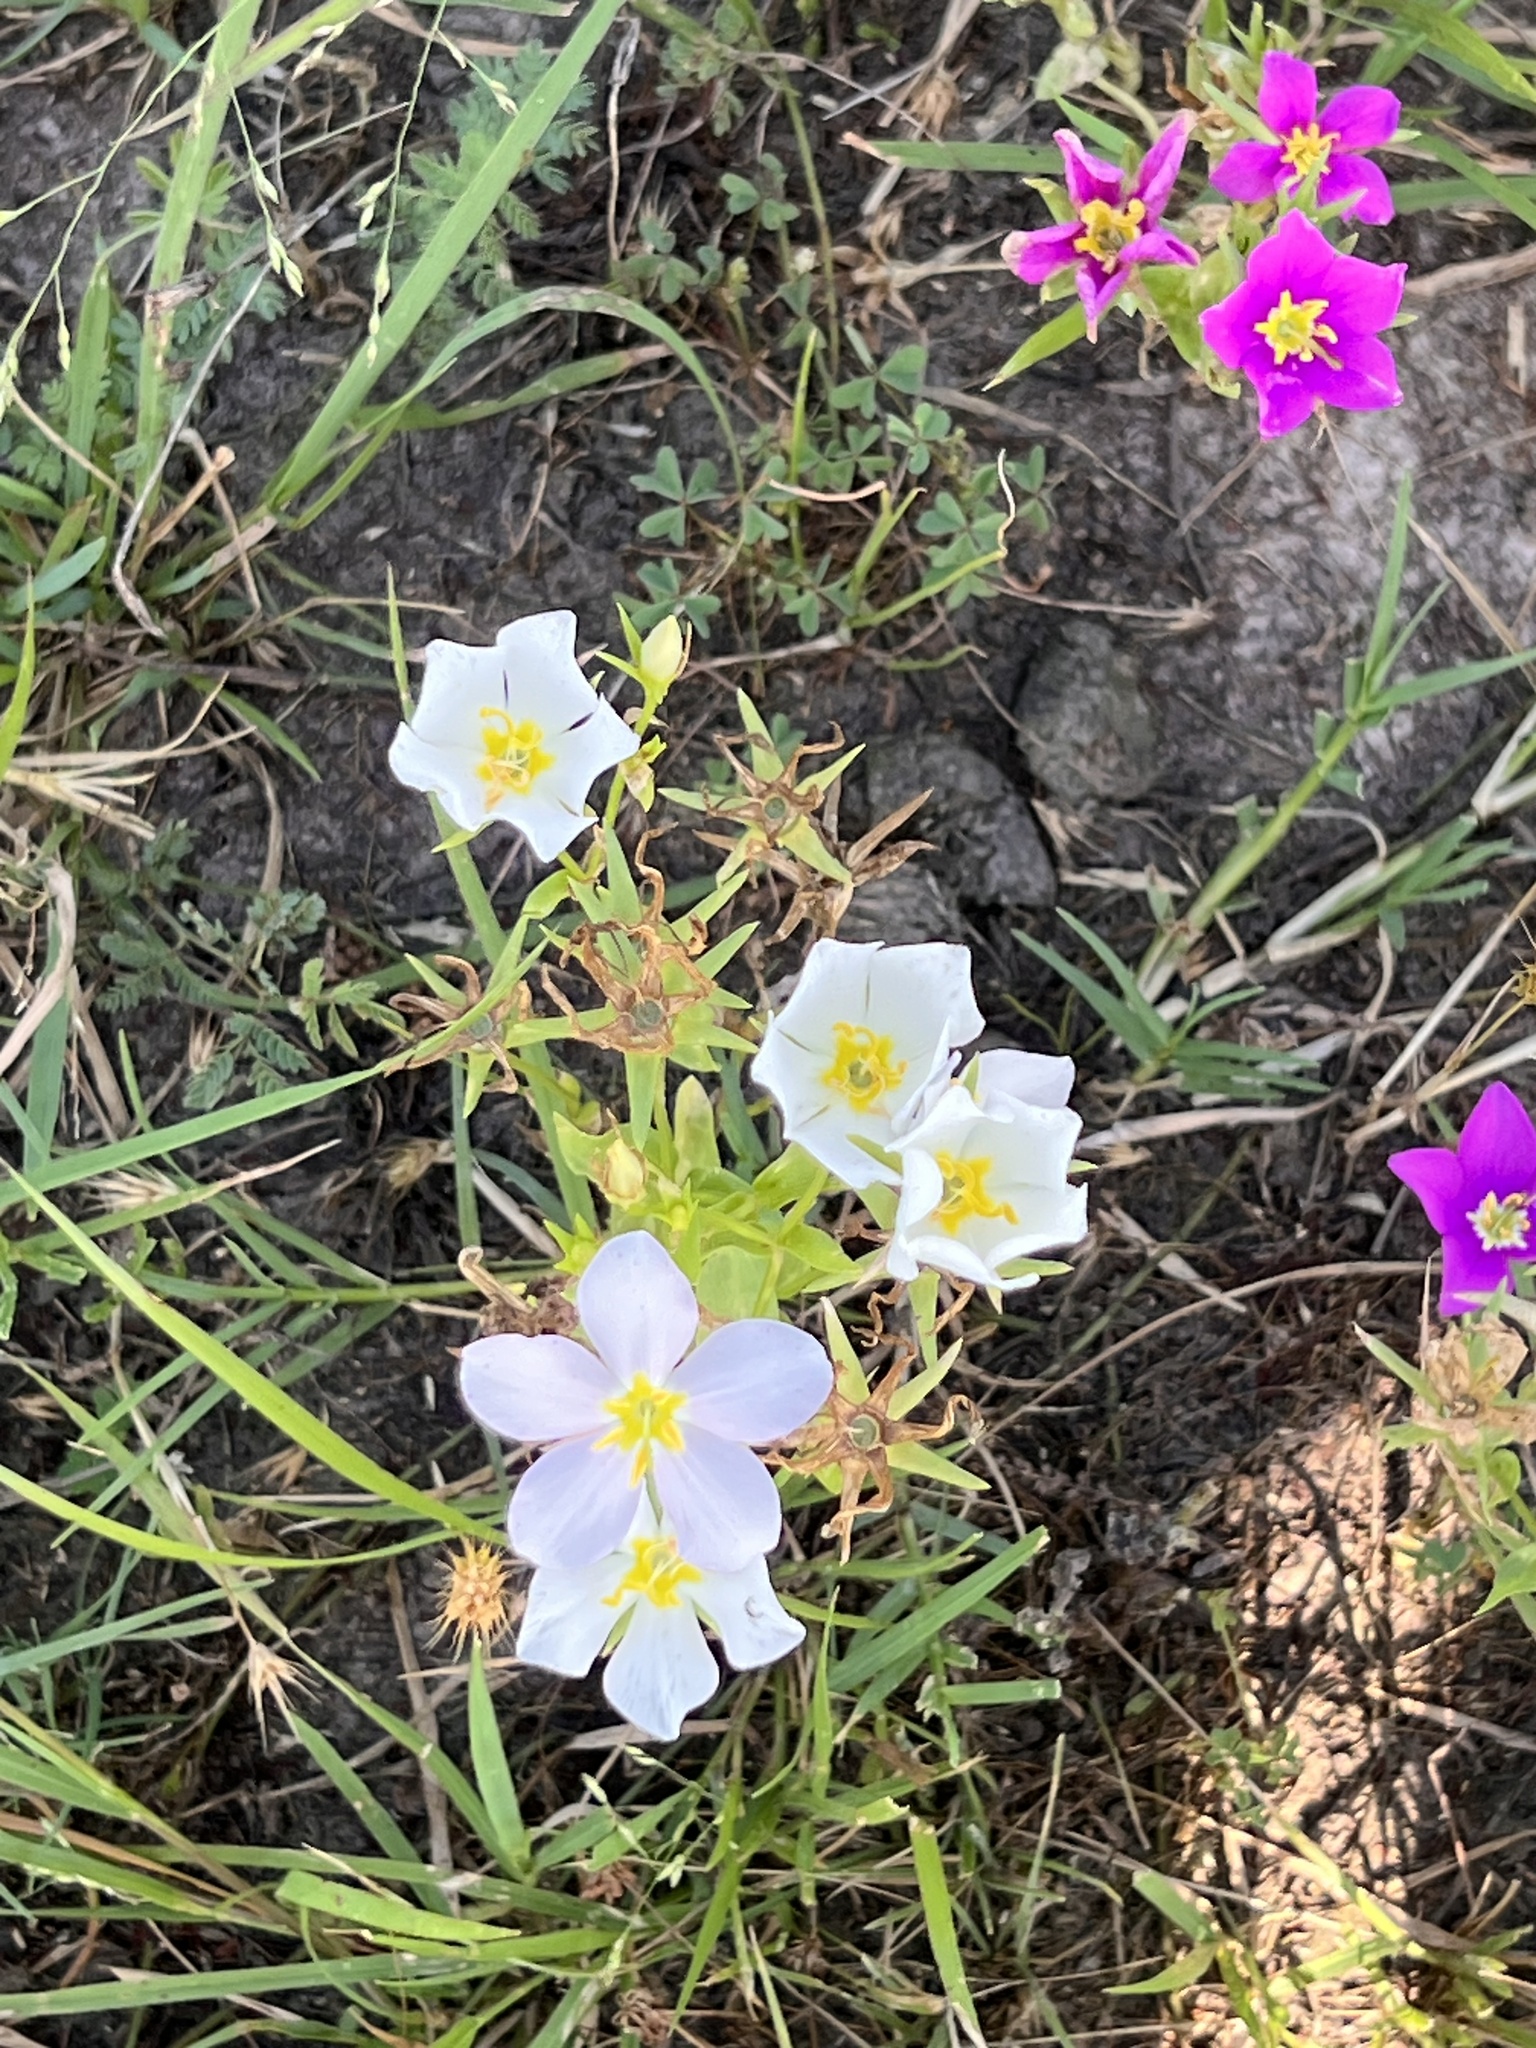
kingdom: Plantae
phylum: Tracheophyta
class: Magnoliopsida
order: Gentianales
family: Gentianaceae
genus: Sabatia
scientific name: Sabatia campestris
